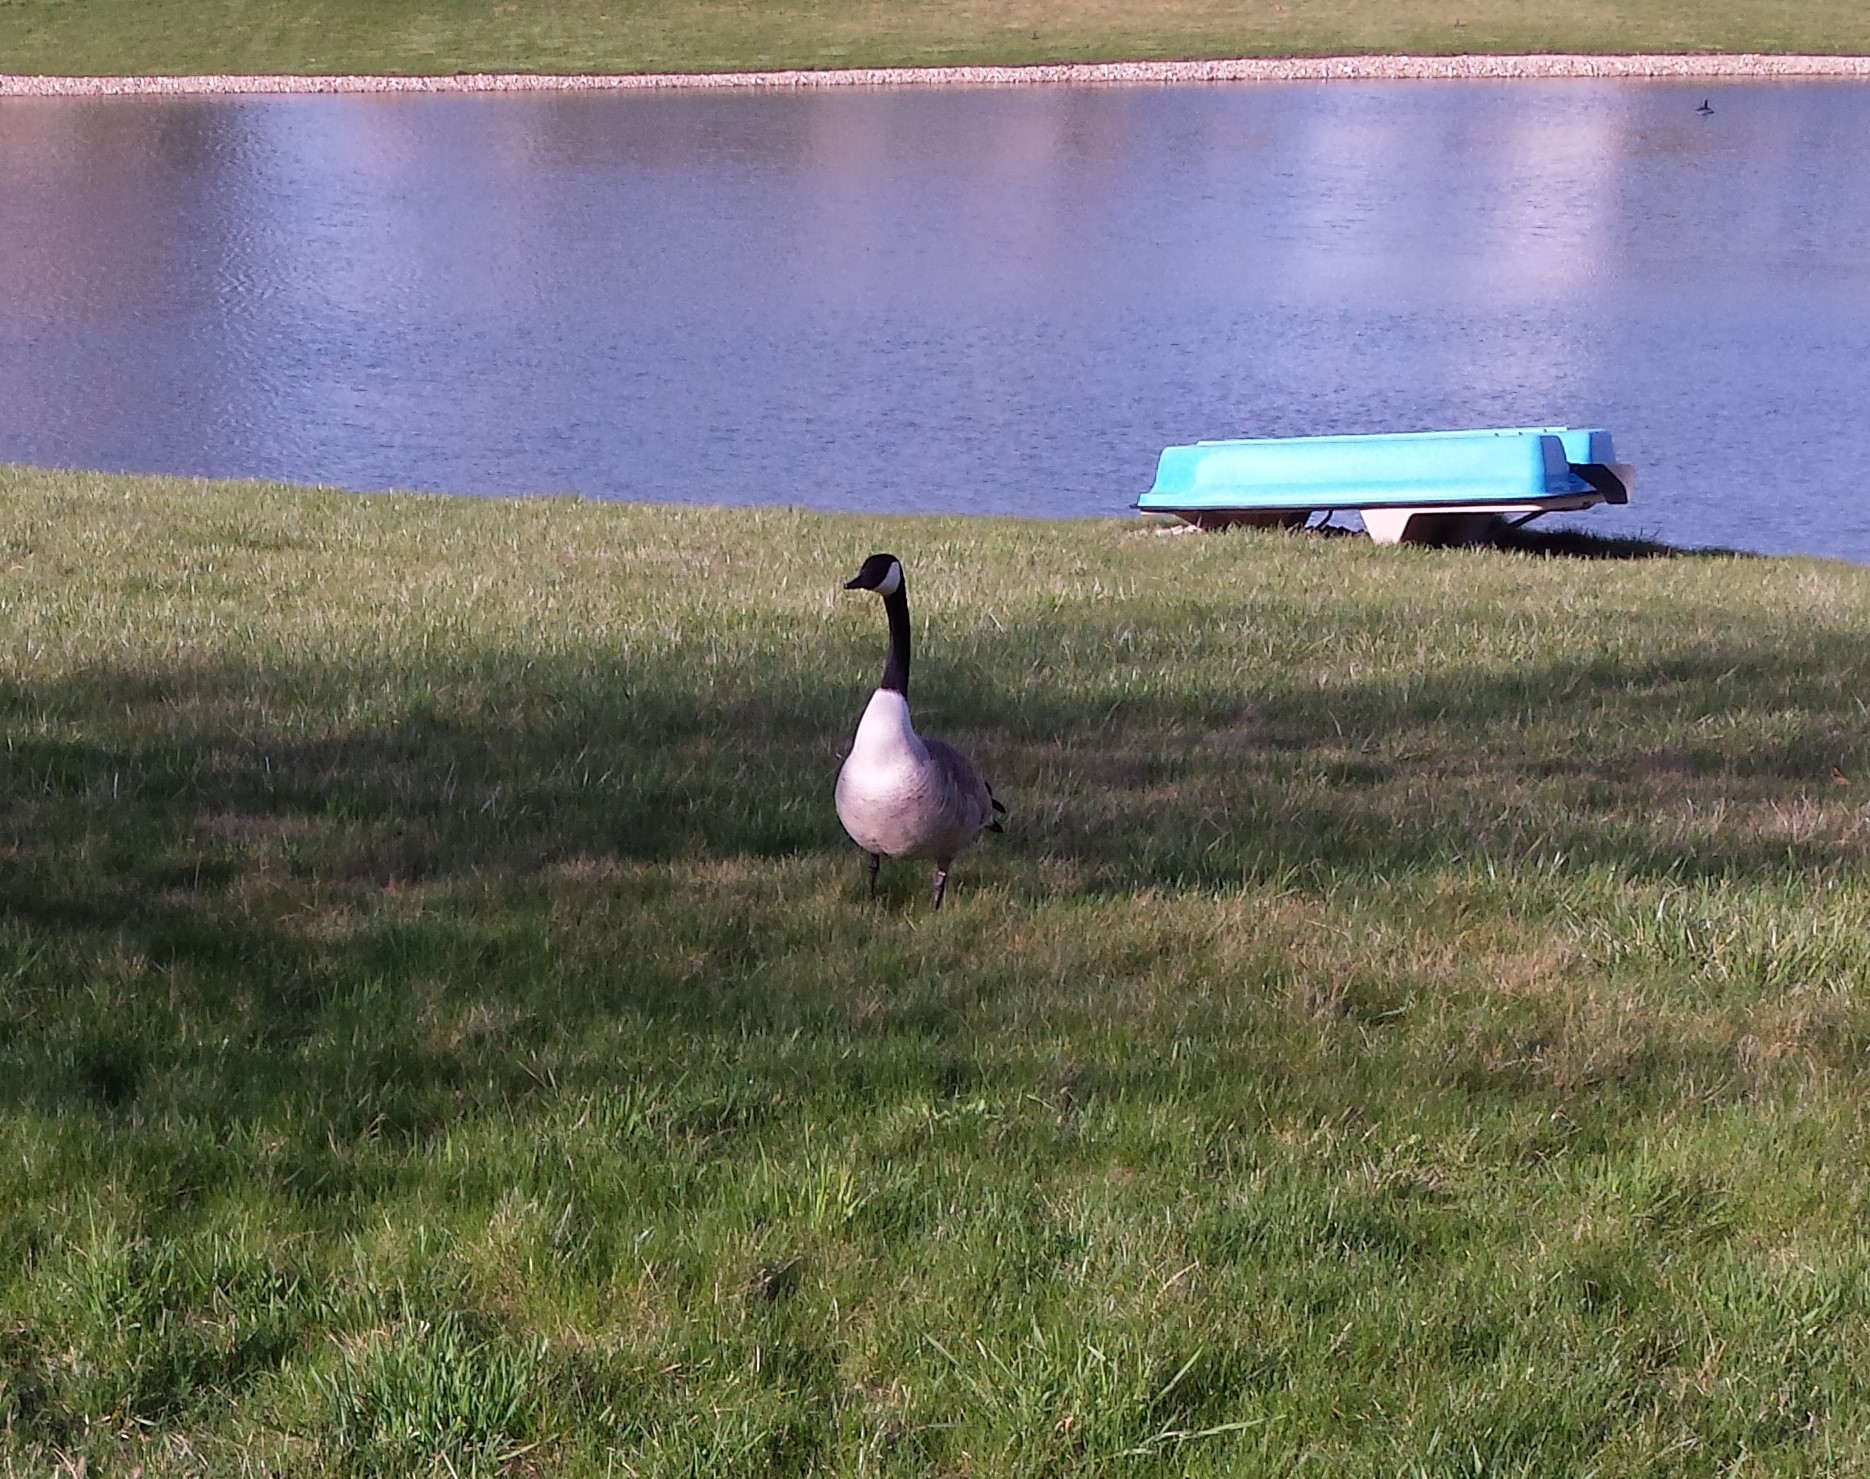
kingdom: Animalia
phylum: Chordata
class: Aves
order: Anseriformes
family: Anatidae
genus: Branta
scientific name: Branta canadensis
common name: Canada goose
